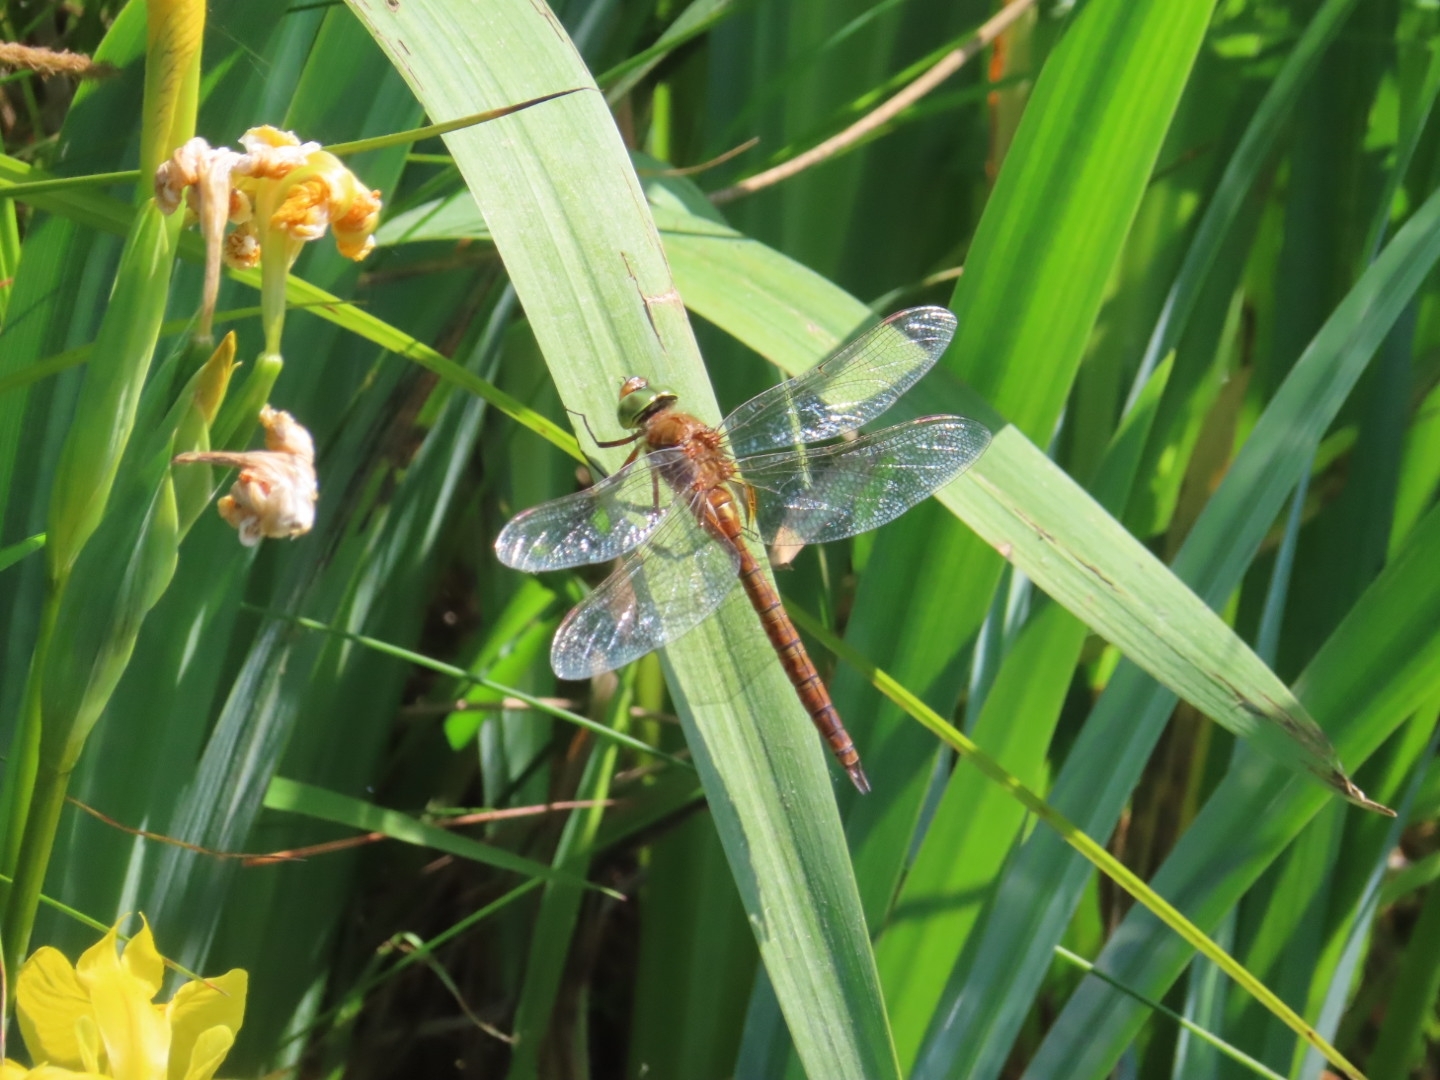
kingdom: Animalia
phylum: Arthropoda
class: Insecta
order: Odonata
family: Aeshnidae
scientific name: Aeshnidae
